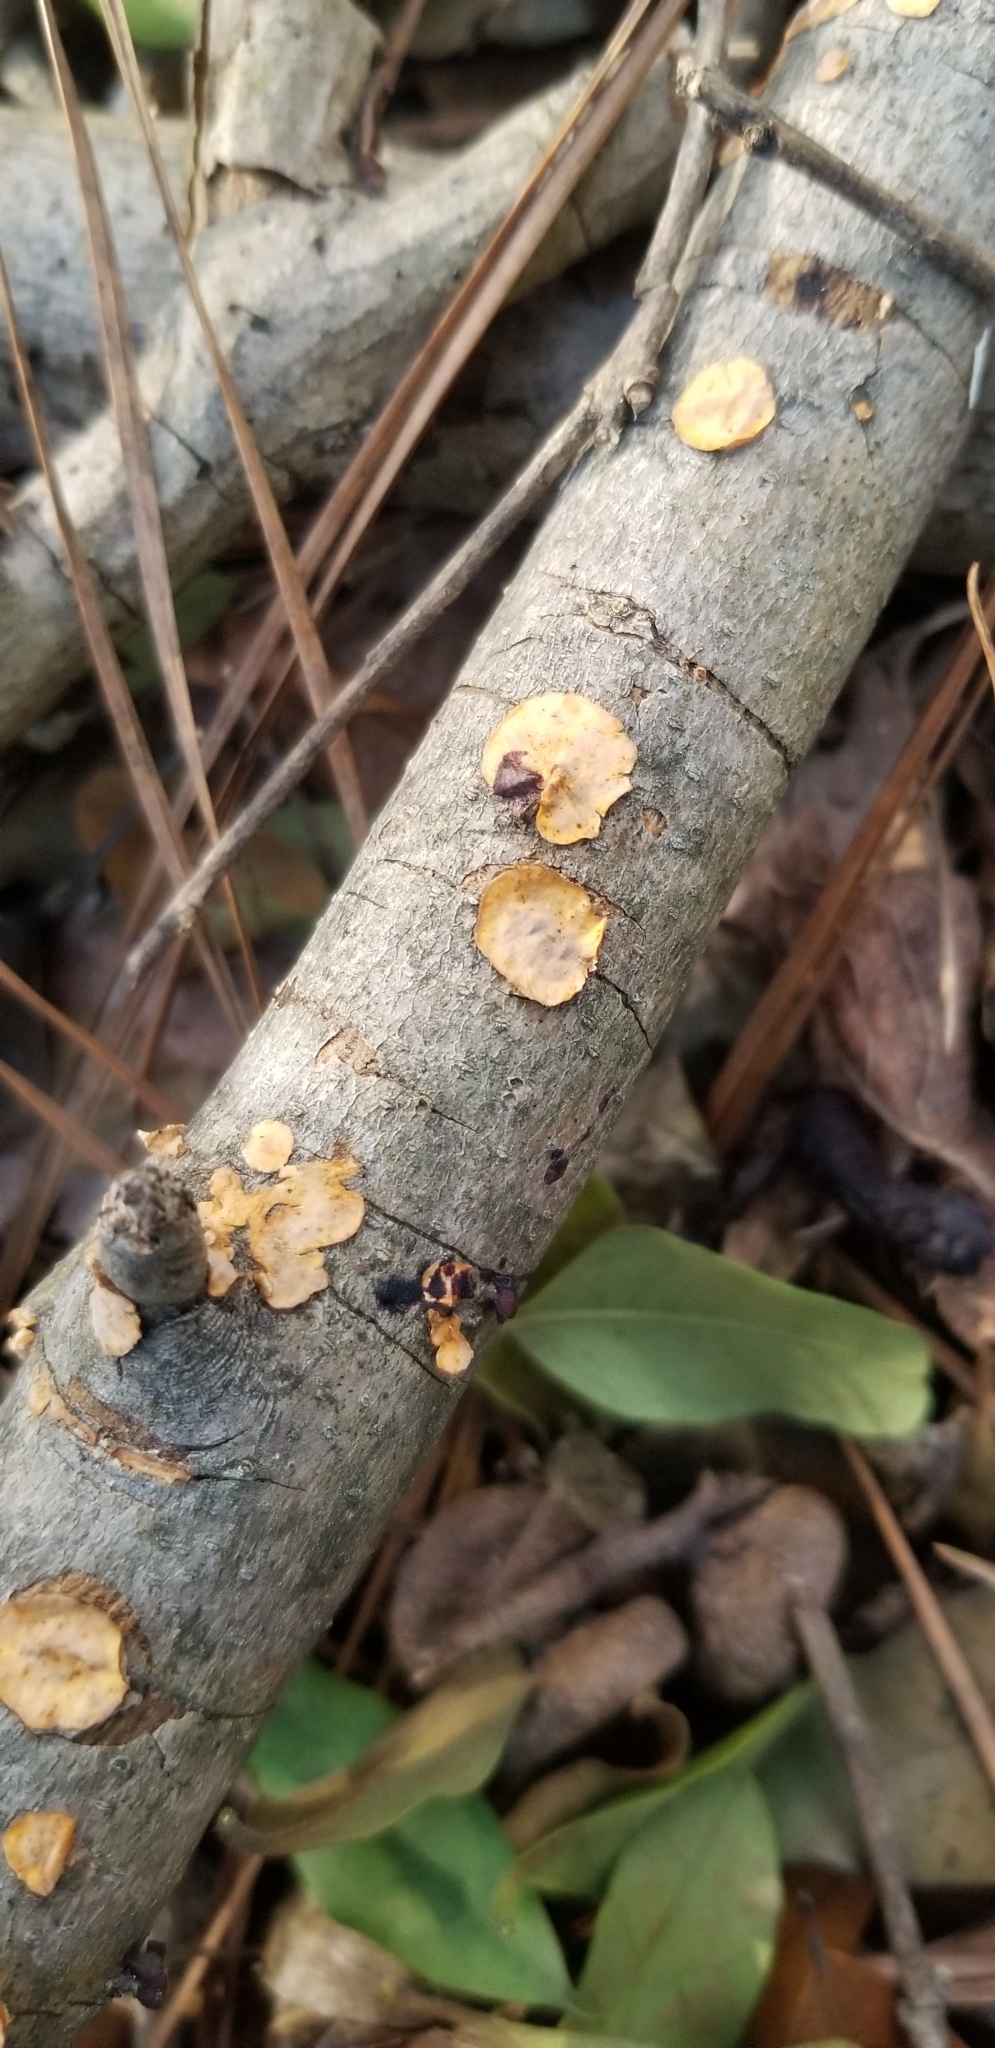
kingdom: Fungi
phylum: Basidiomycota
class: Agaricomycetes
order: Russulales
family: Stereaceae
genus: Stereum
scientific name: Stereum complicatum
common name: Crowded parchment
